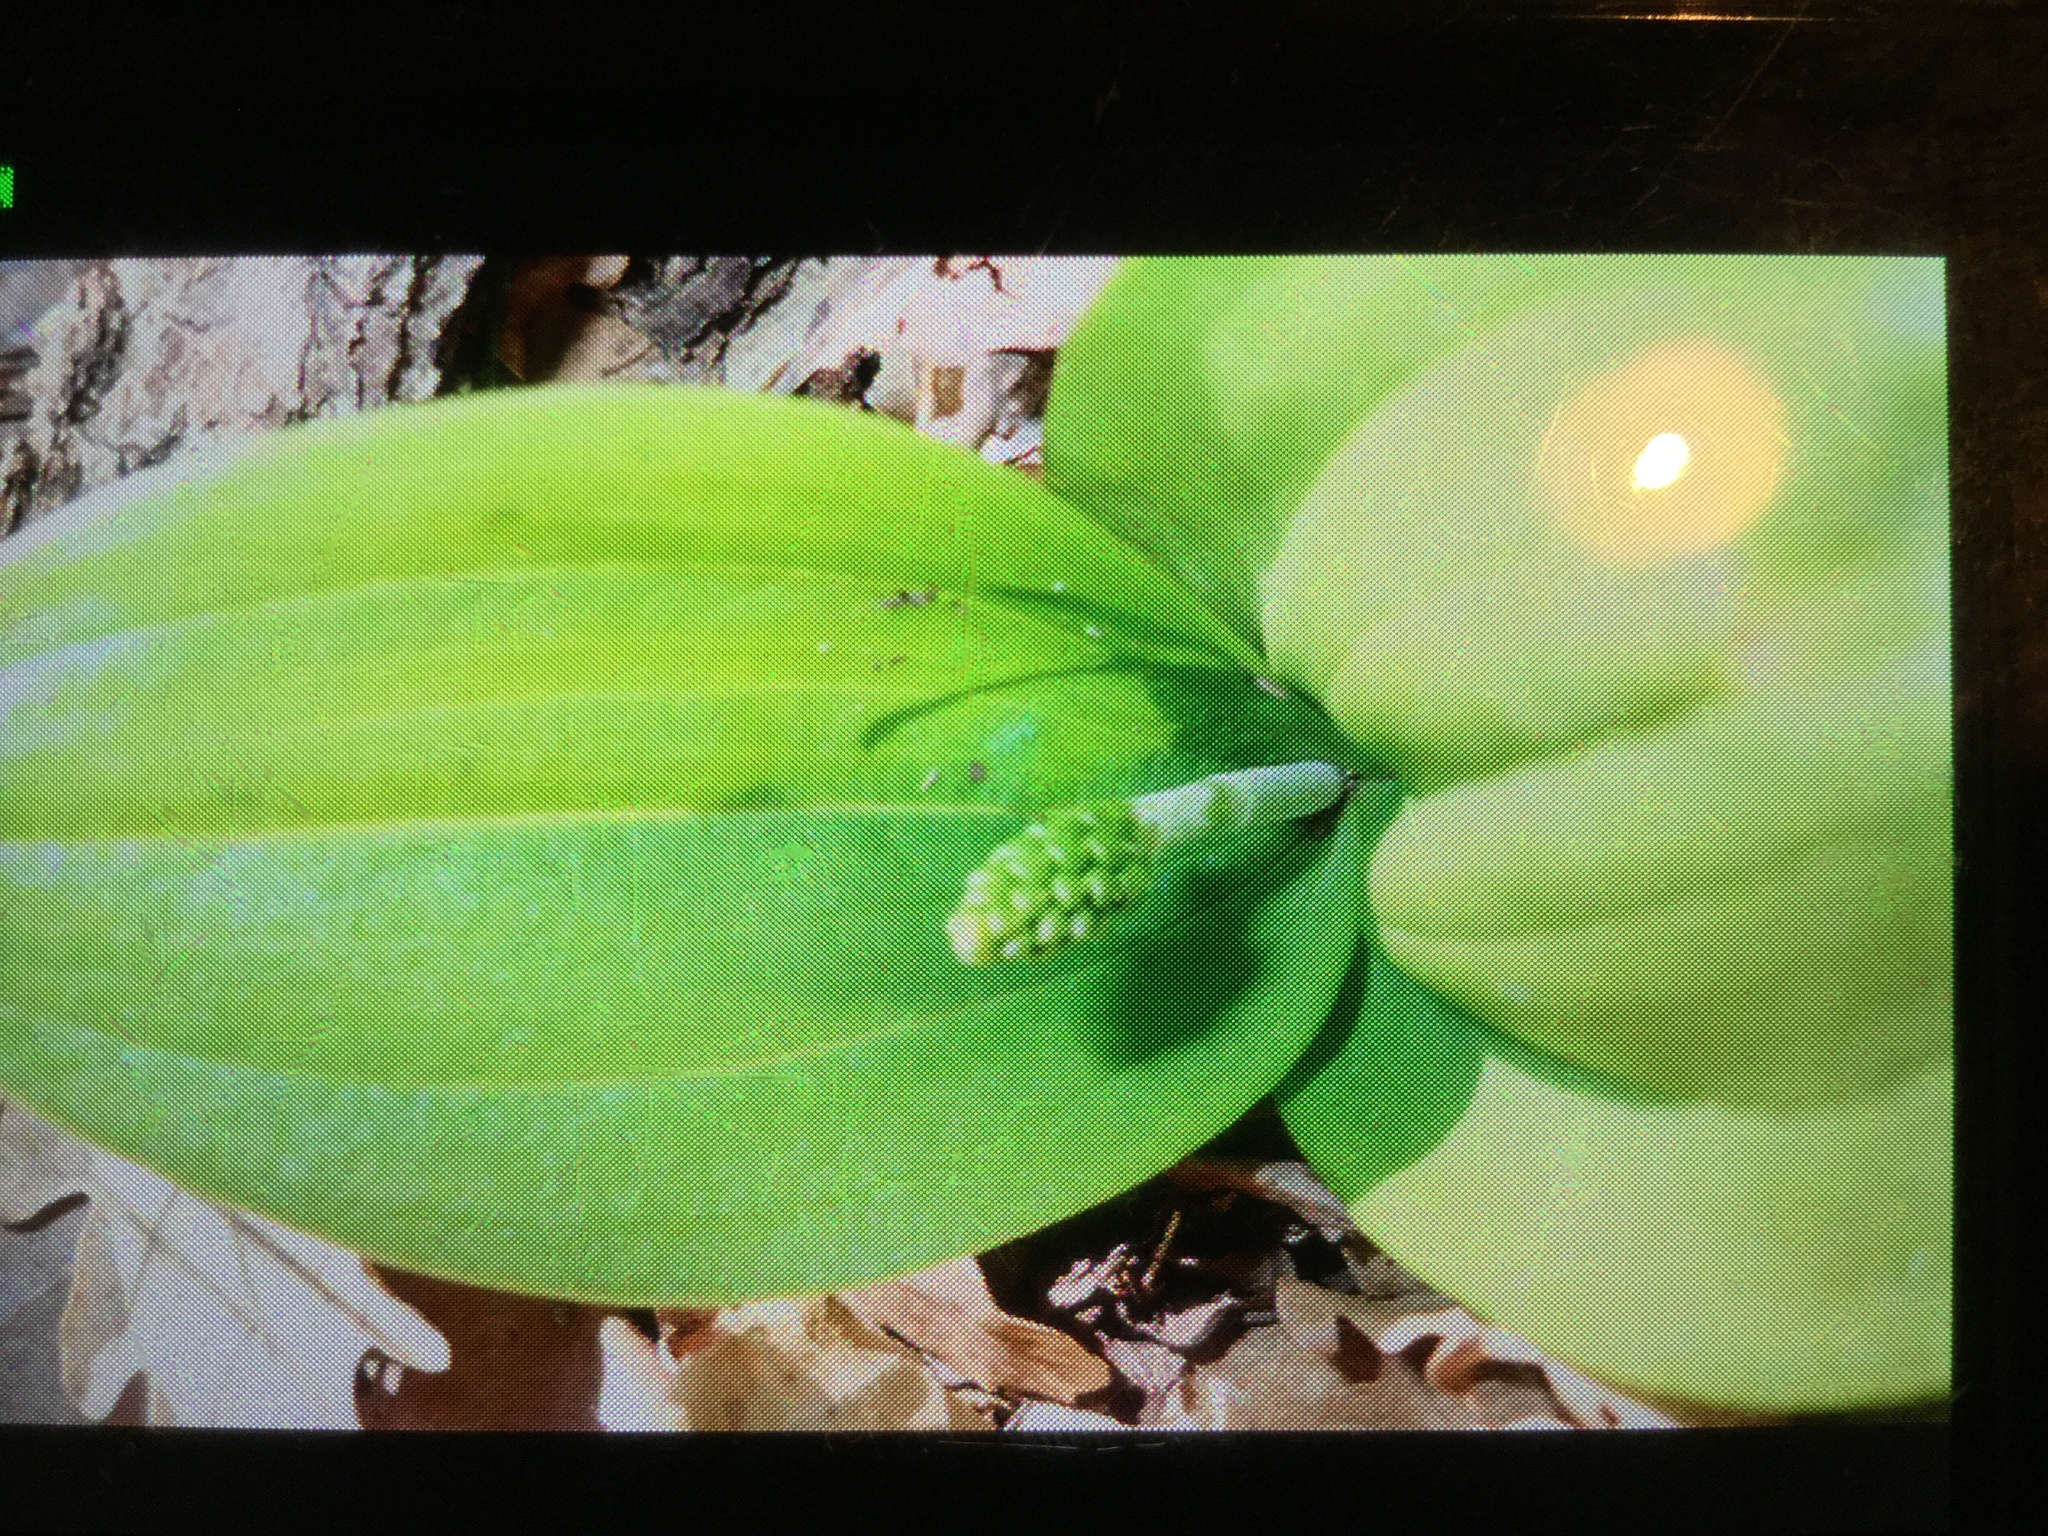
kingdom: Plantae
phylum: Tracheophyta
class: Liliopsida
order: Asparagales
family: Orchidaceae
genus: Neottia
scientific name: Neottia ovata
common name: Common twayblade
